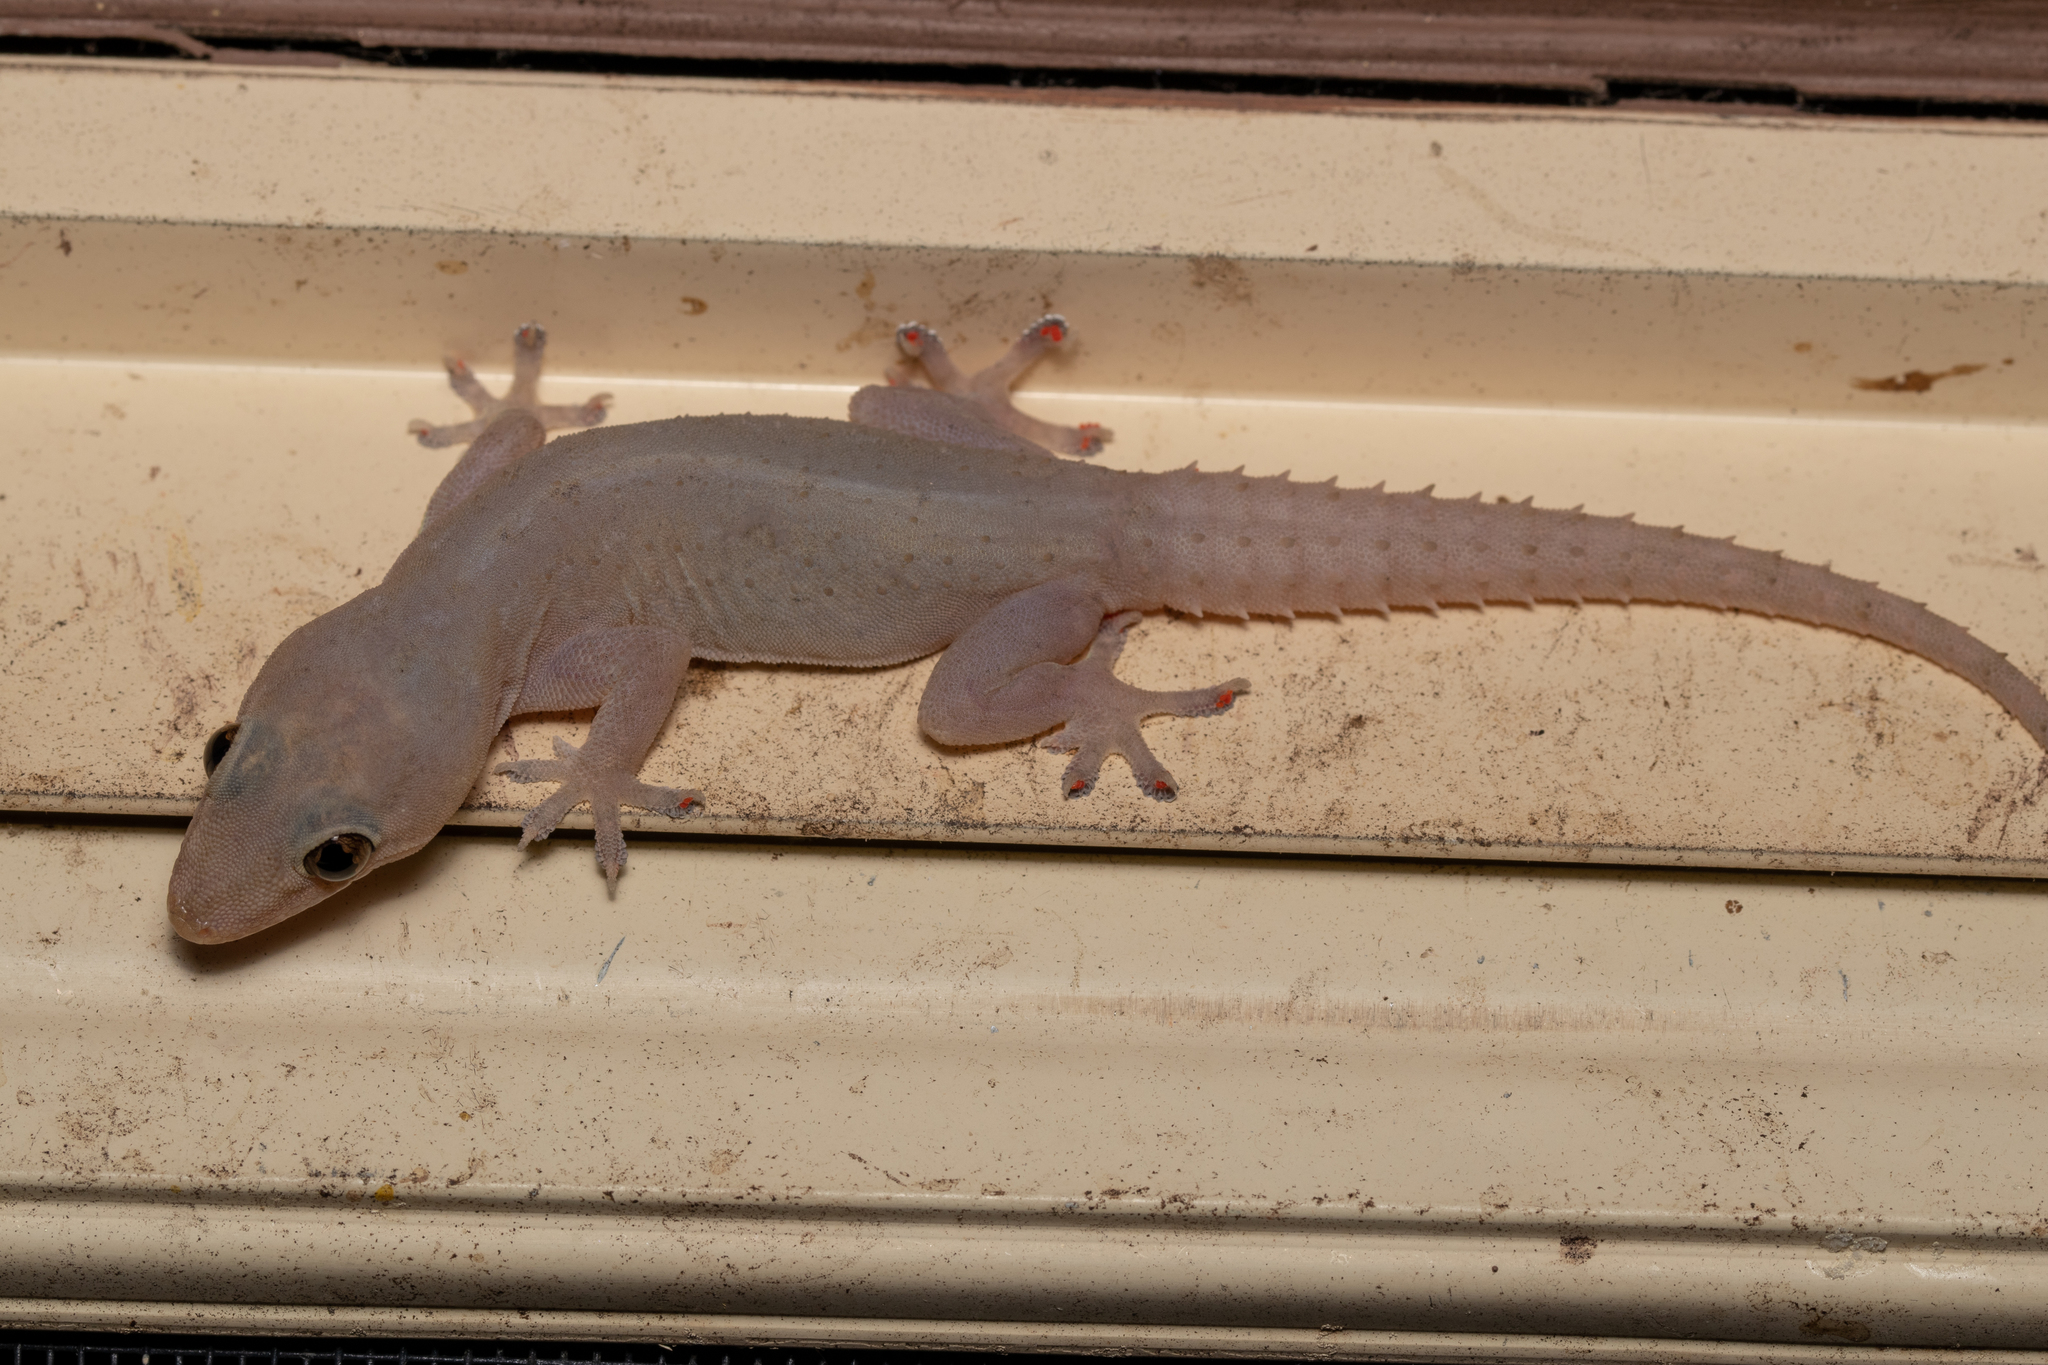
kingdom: Animalia
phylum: Chordata
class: Squamata
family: Gekkonidae
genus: Hemidactylus
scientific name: Hemidactylus frenatus
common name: Common house gecko
